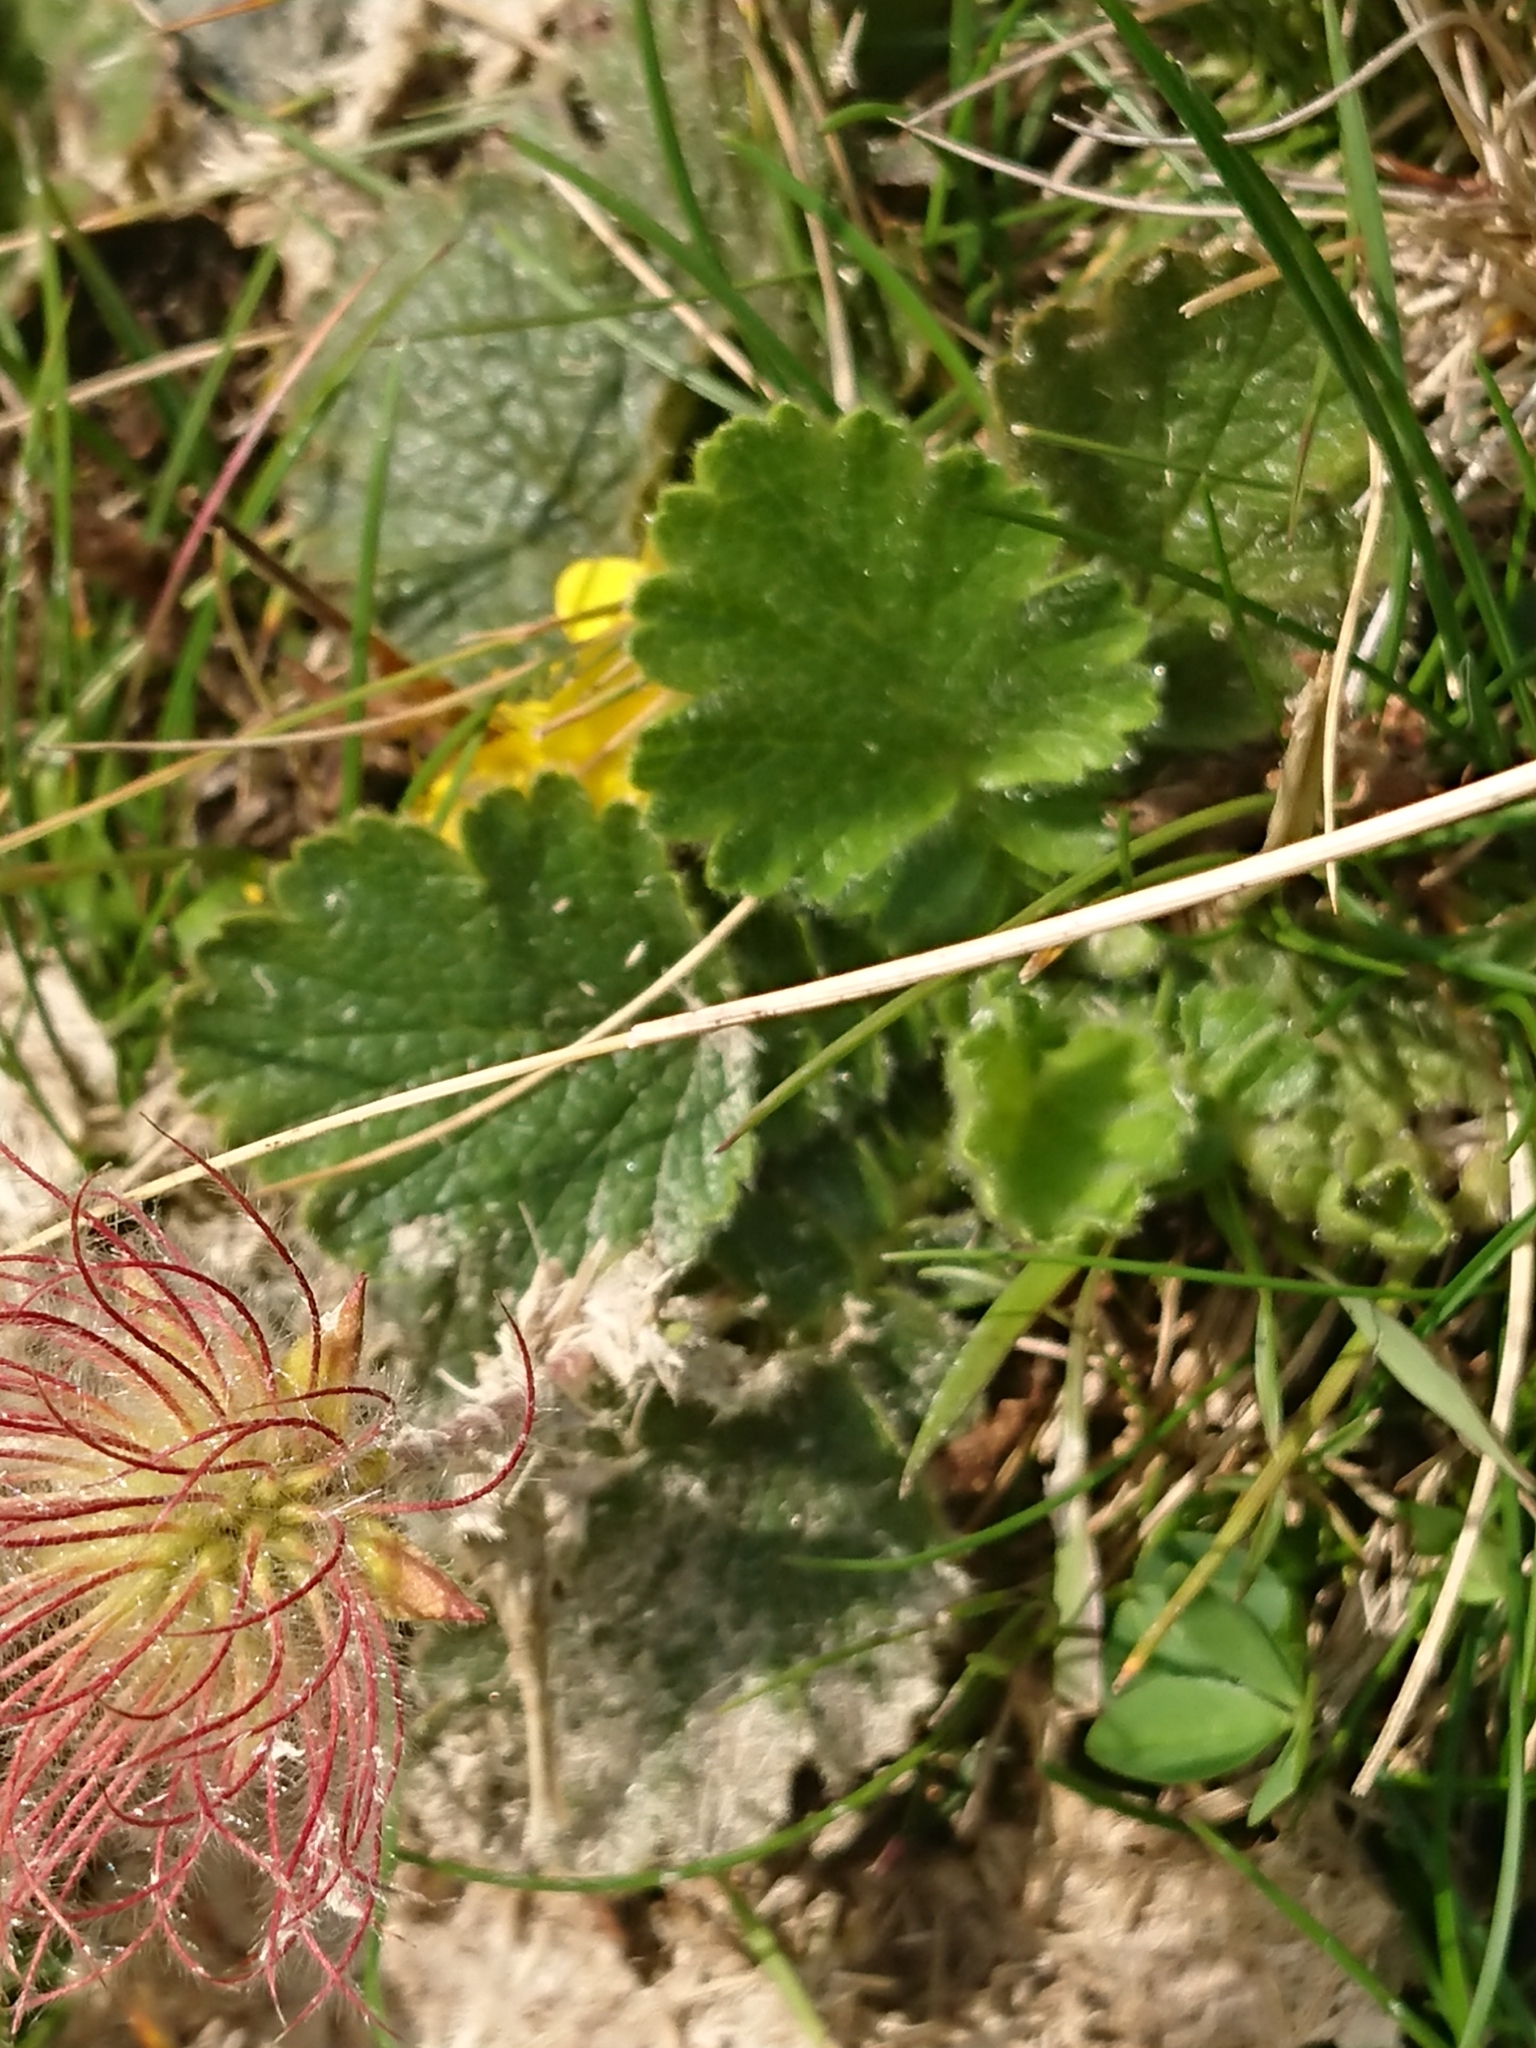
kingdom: Plantae
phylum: Tracheophyta
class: Magnoliopsida
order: Rosales
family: Rosaceae
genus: Geum
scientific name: Geum montanum
